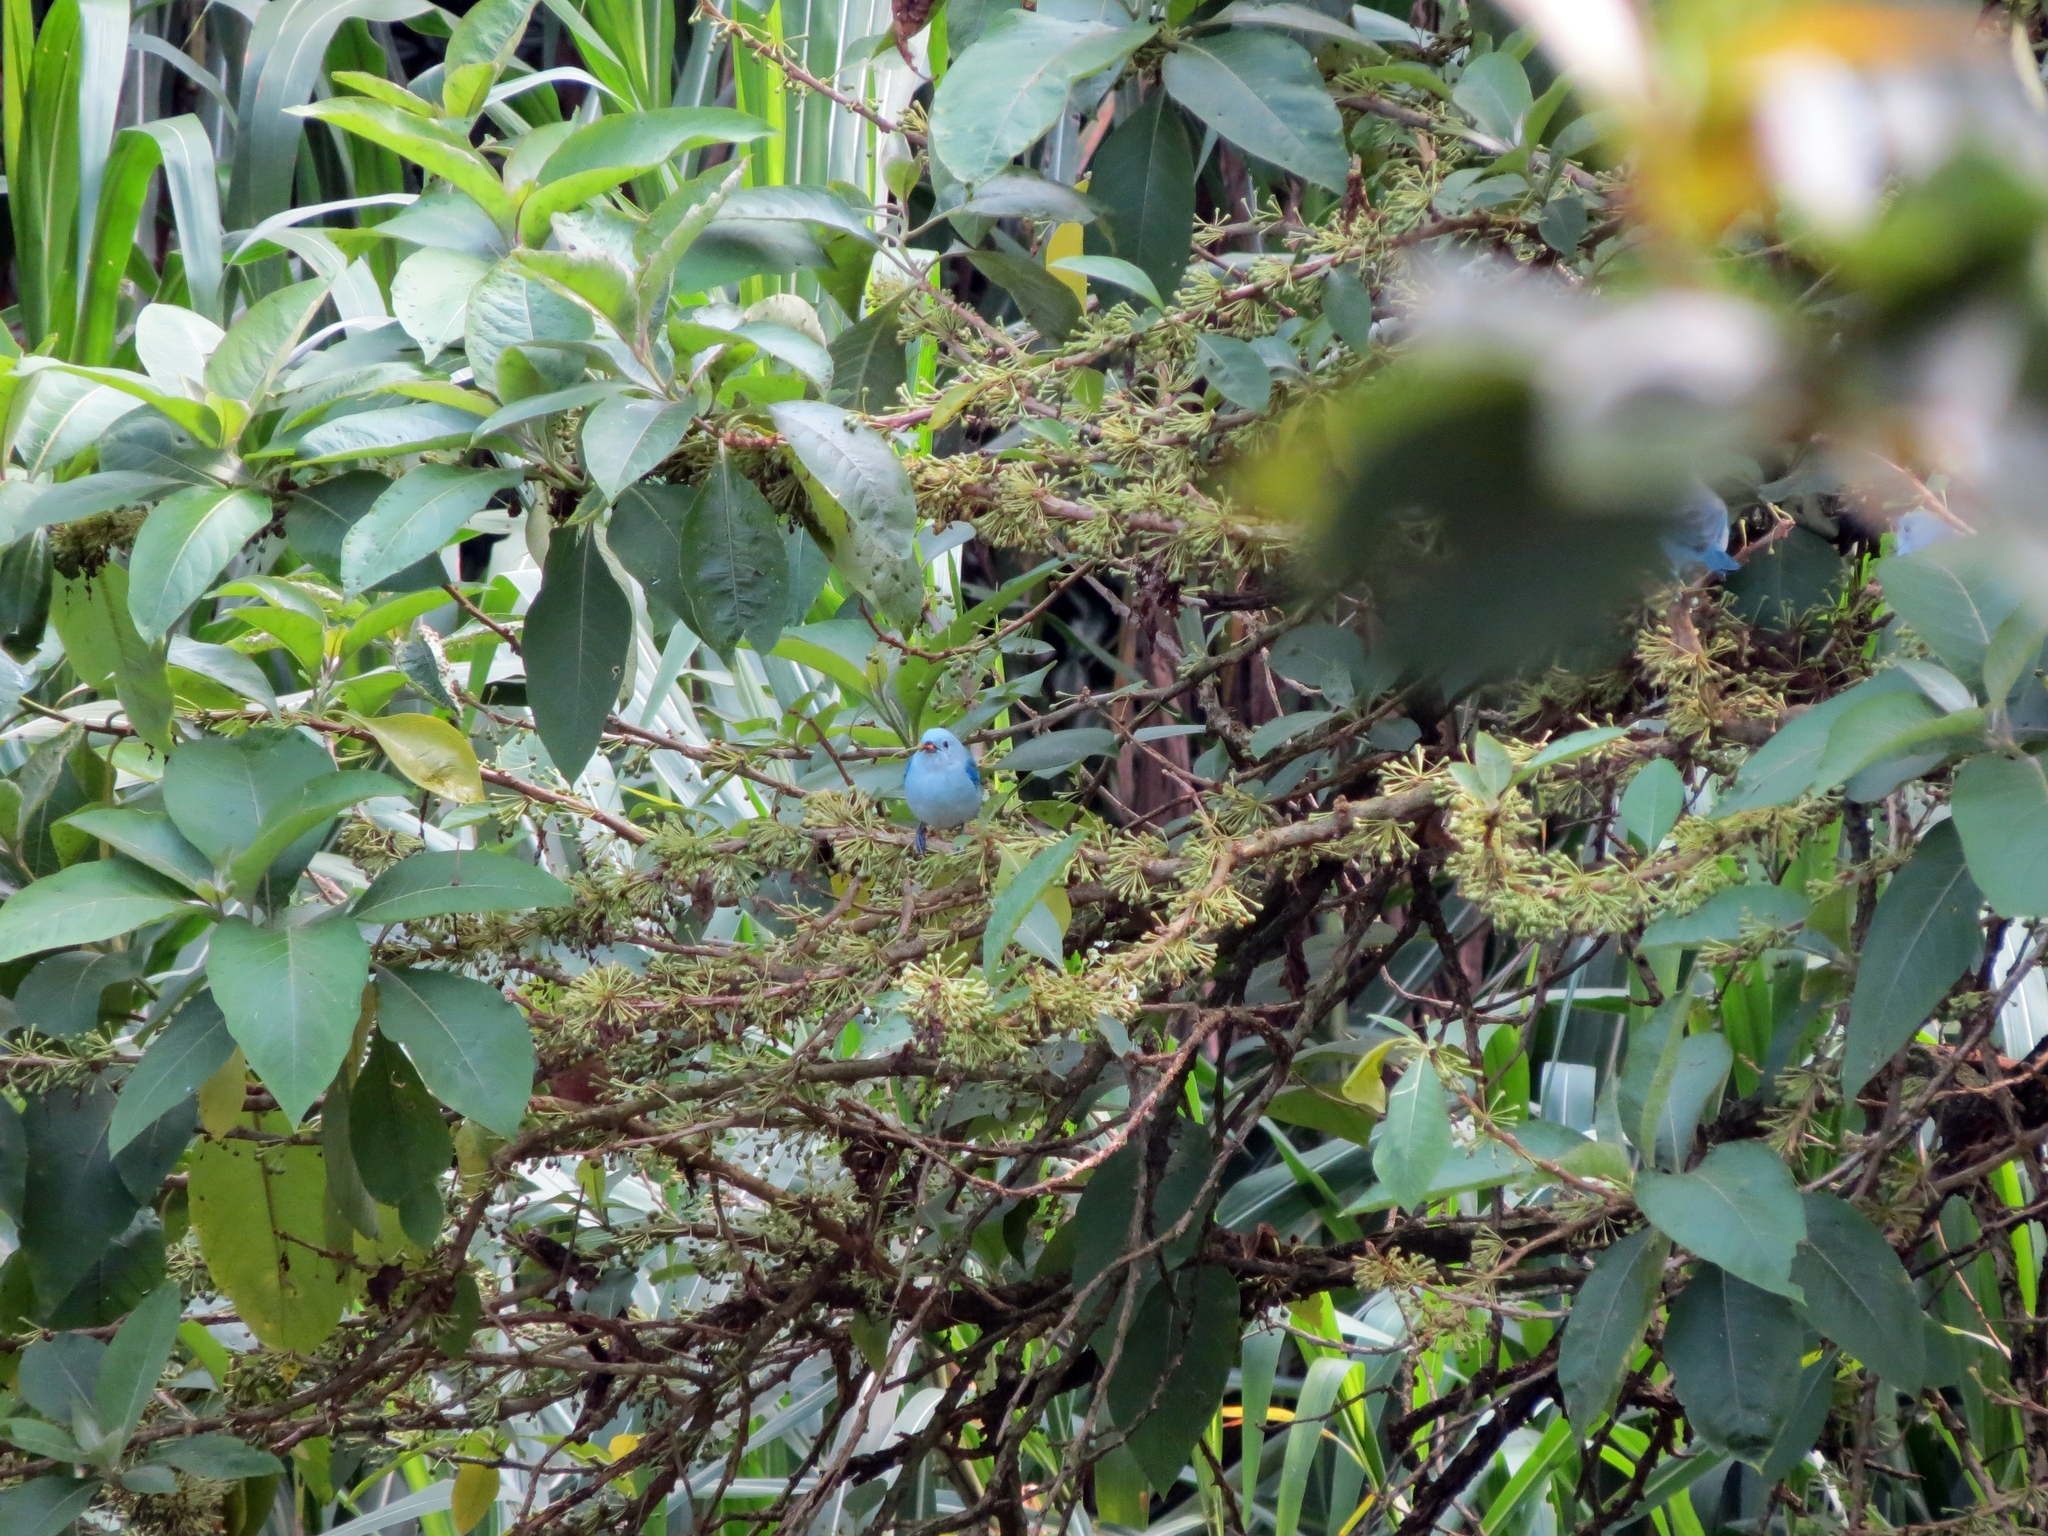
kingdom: Animalia
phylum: Chordata
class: Aves
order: Passeriformes
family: Thraupidae
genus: Thraupis
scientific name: Thraupis episcopus
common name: Blue-grey tanager
